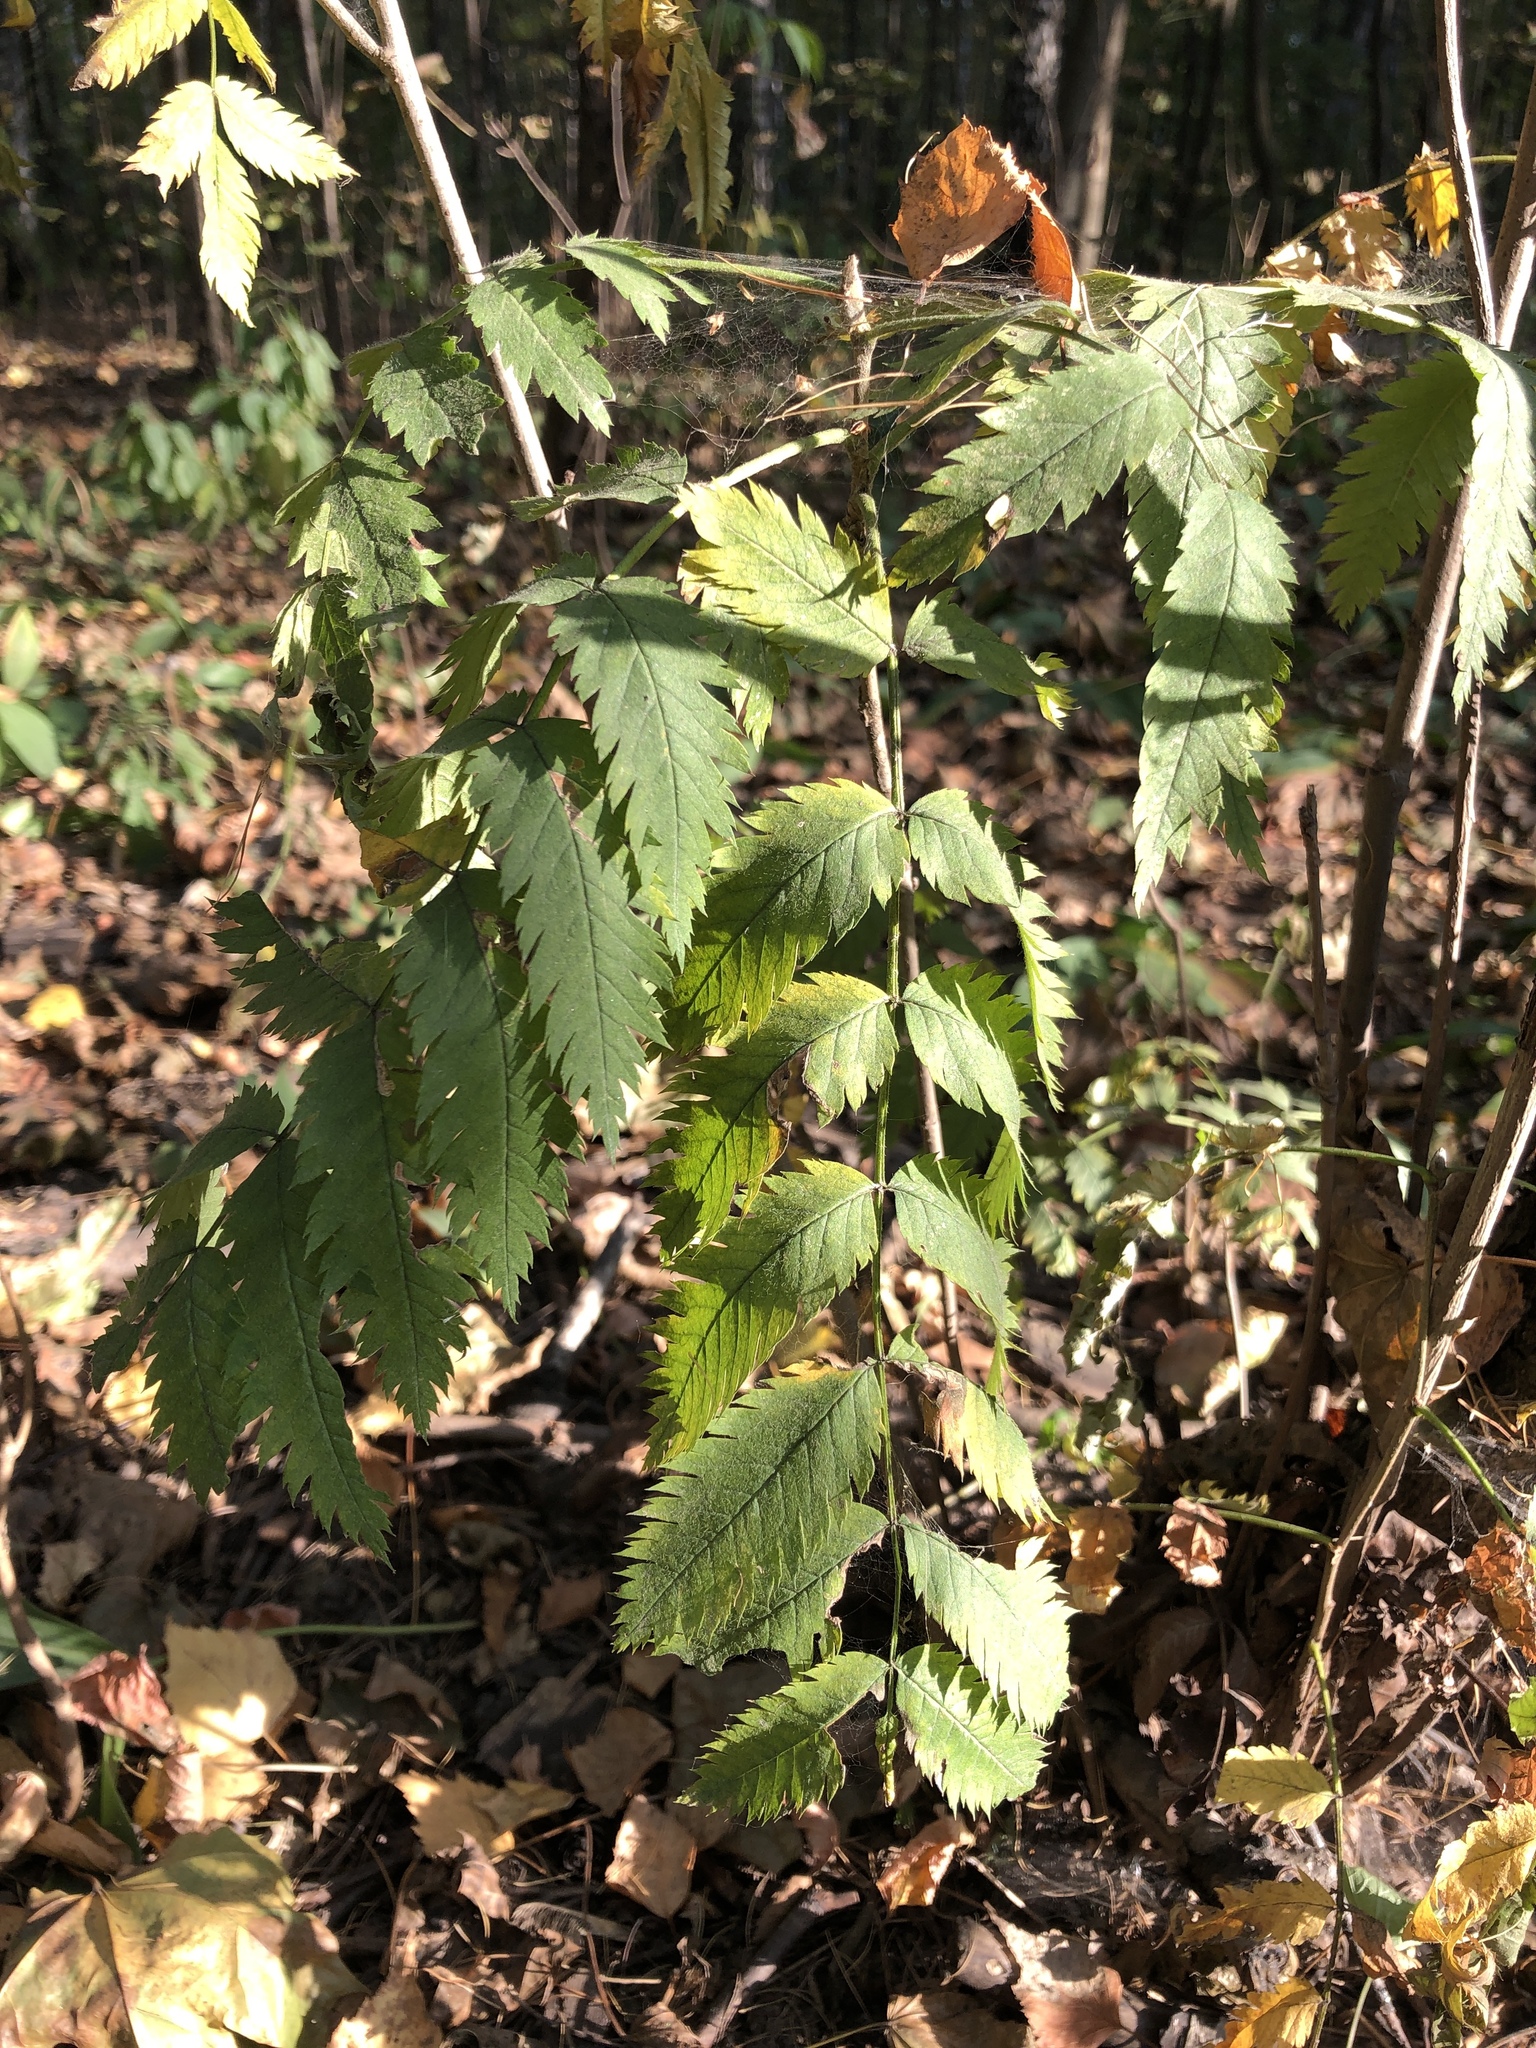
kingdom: Plantae
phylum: Tracheophyta
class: Magnoliopsida
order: Rosales
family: Rosaceae
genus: Sorbus
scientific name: Sorbus aucuparia
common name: Rowan
